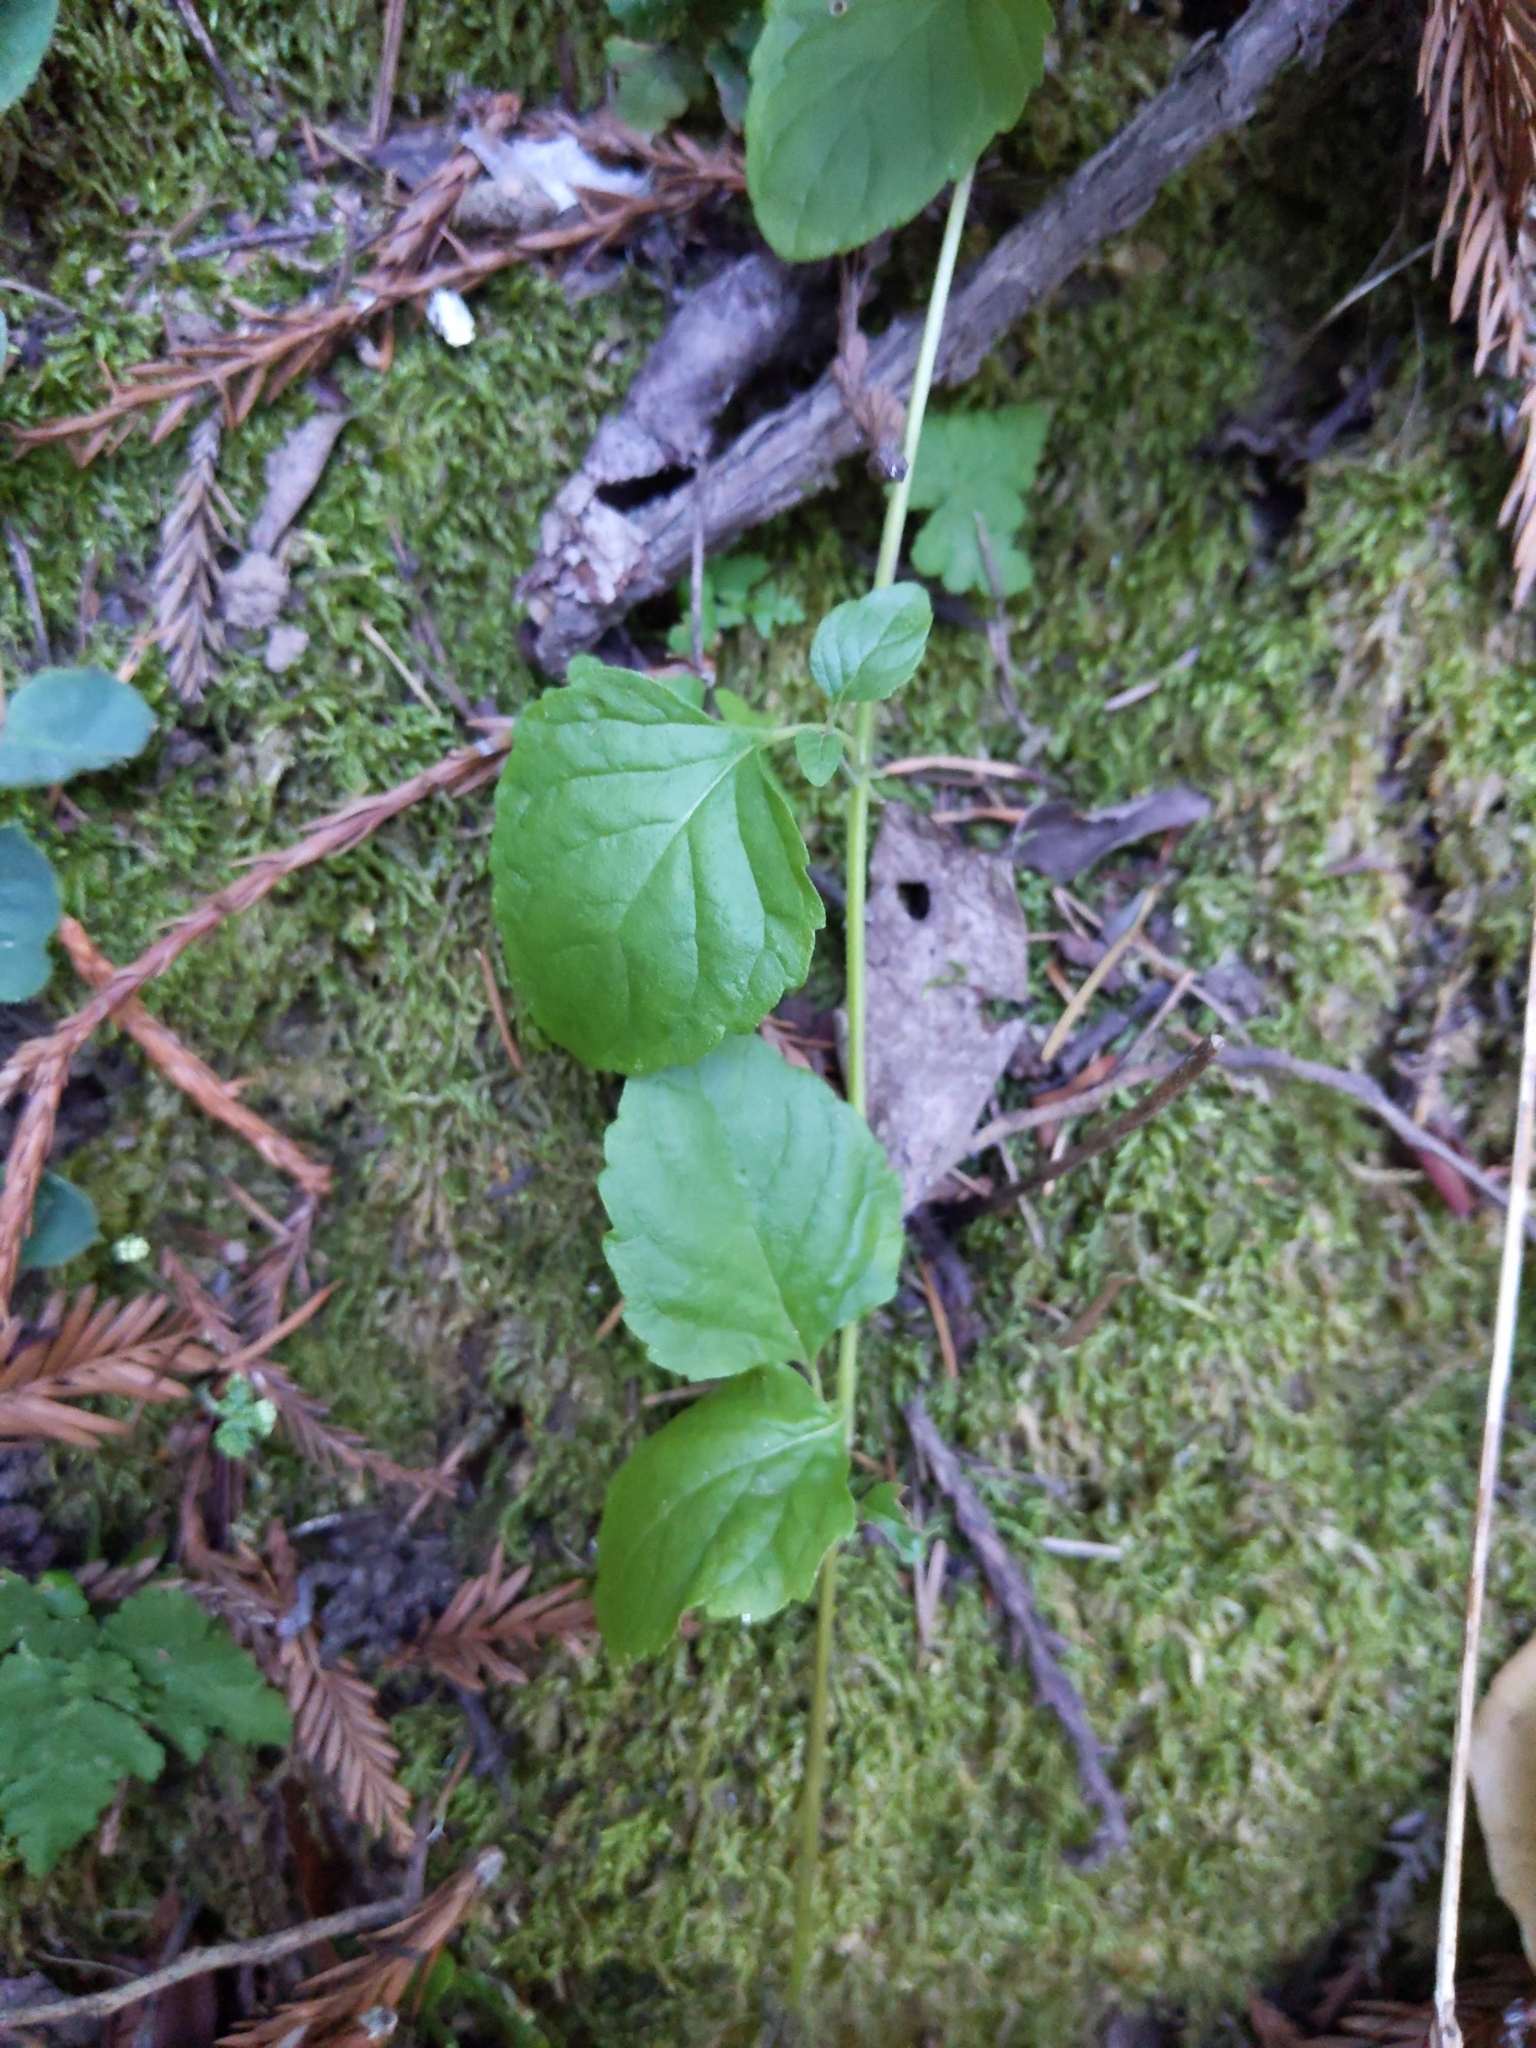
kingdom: Plantae
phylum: Tracheophyta
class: Magnoliopsida
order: Lamiales
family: Lamiaceae
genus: Micromeria
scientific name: Micromeria douglasii
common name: Yerba buena
